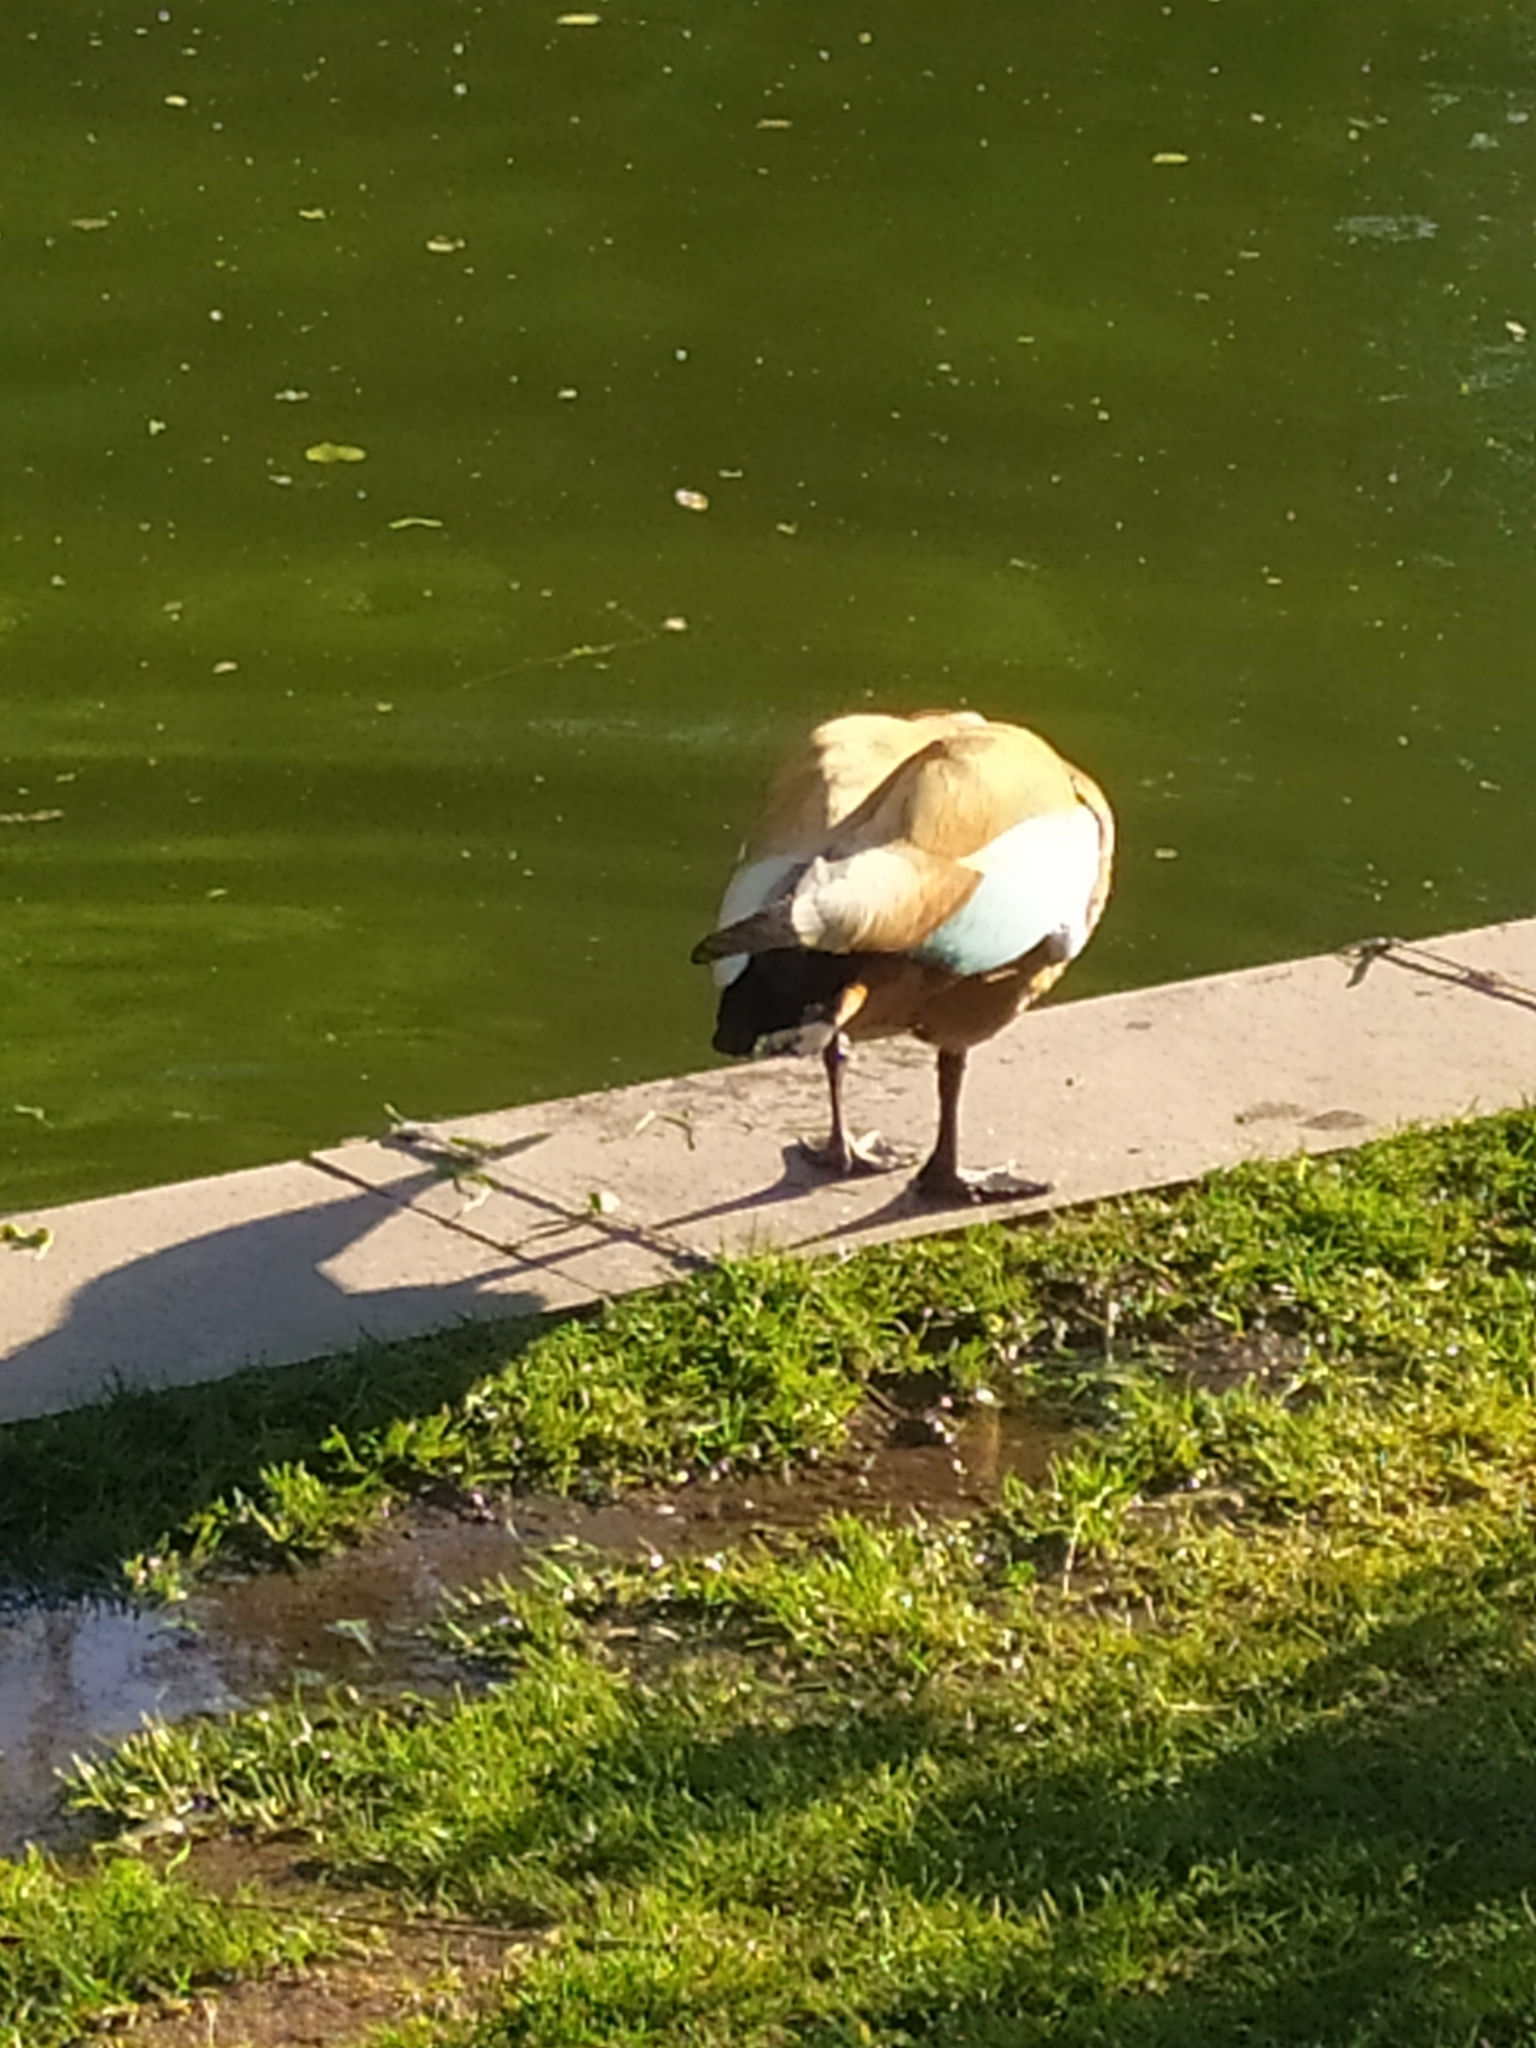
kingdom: Animalia
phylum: Chordata
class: Aves
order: Anseriformes
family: Anatidae
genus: Tadorna
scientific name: Tadorna ferruginea
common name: Ruddy shelduck
